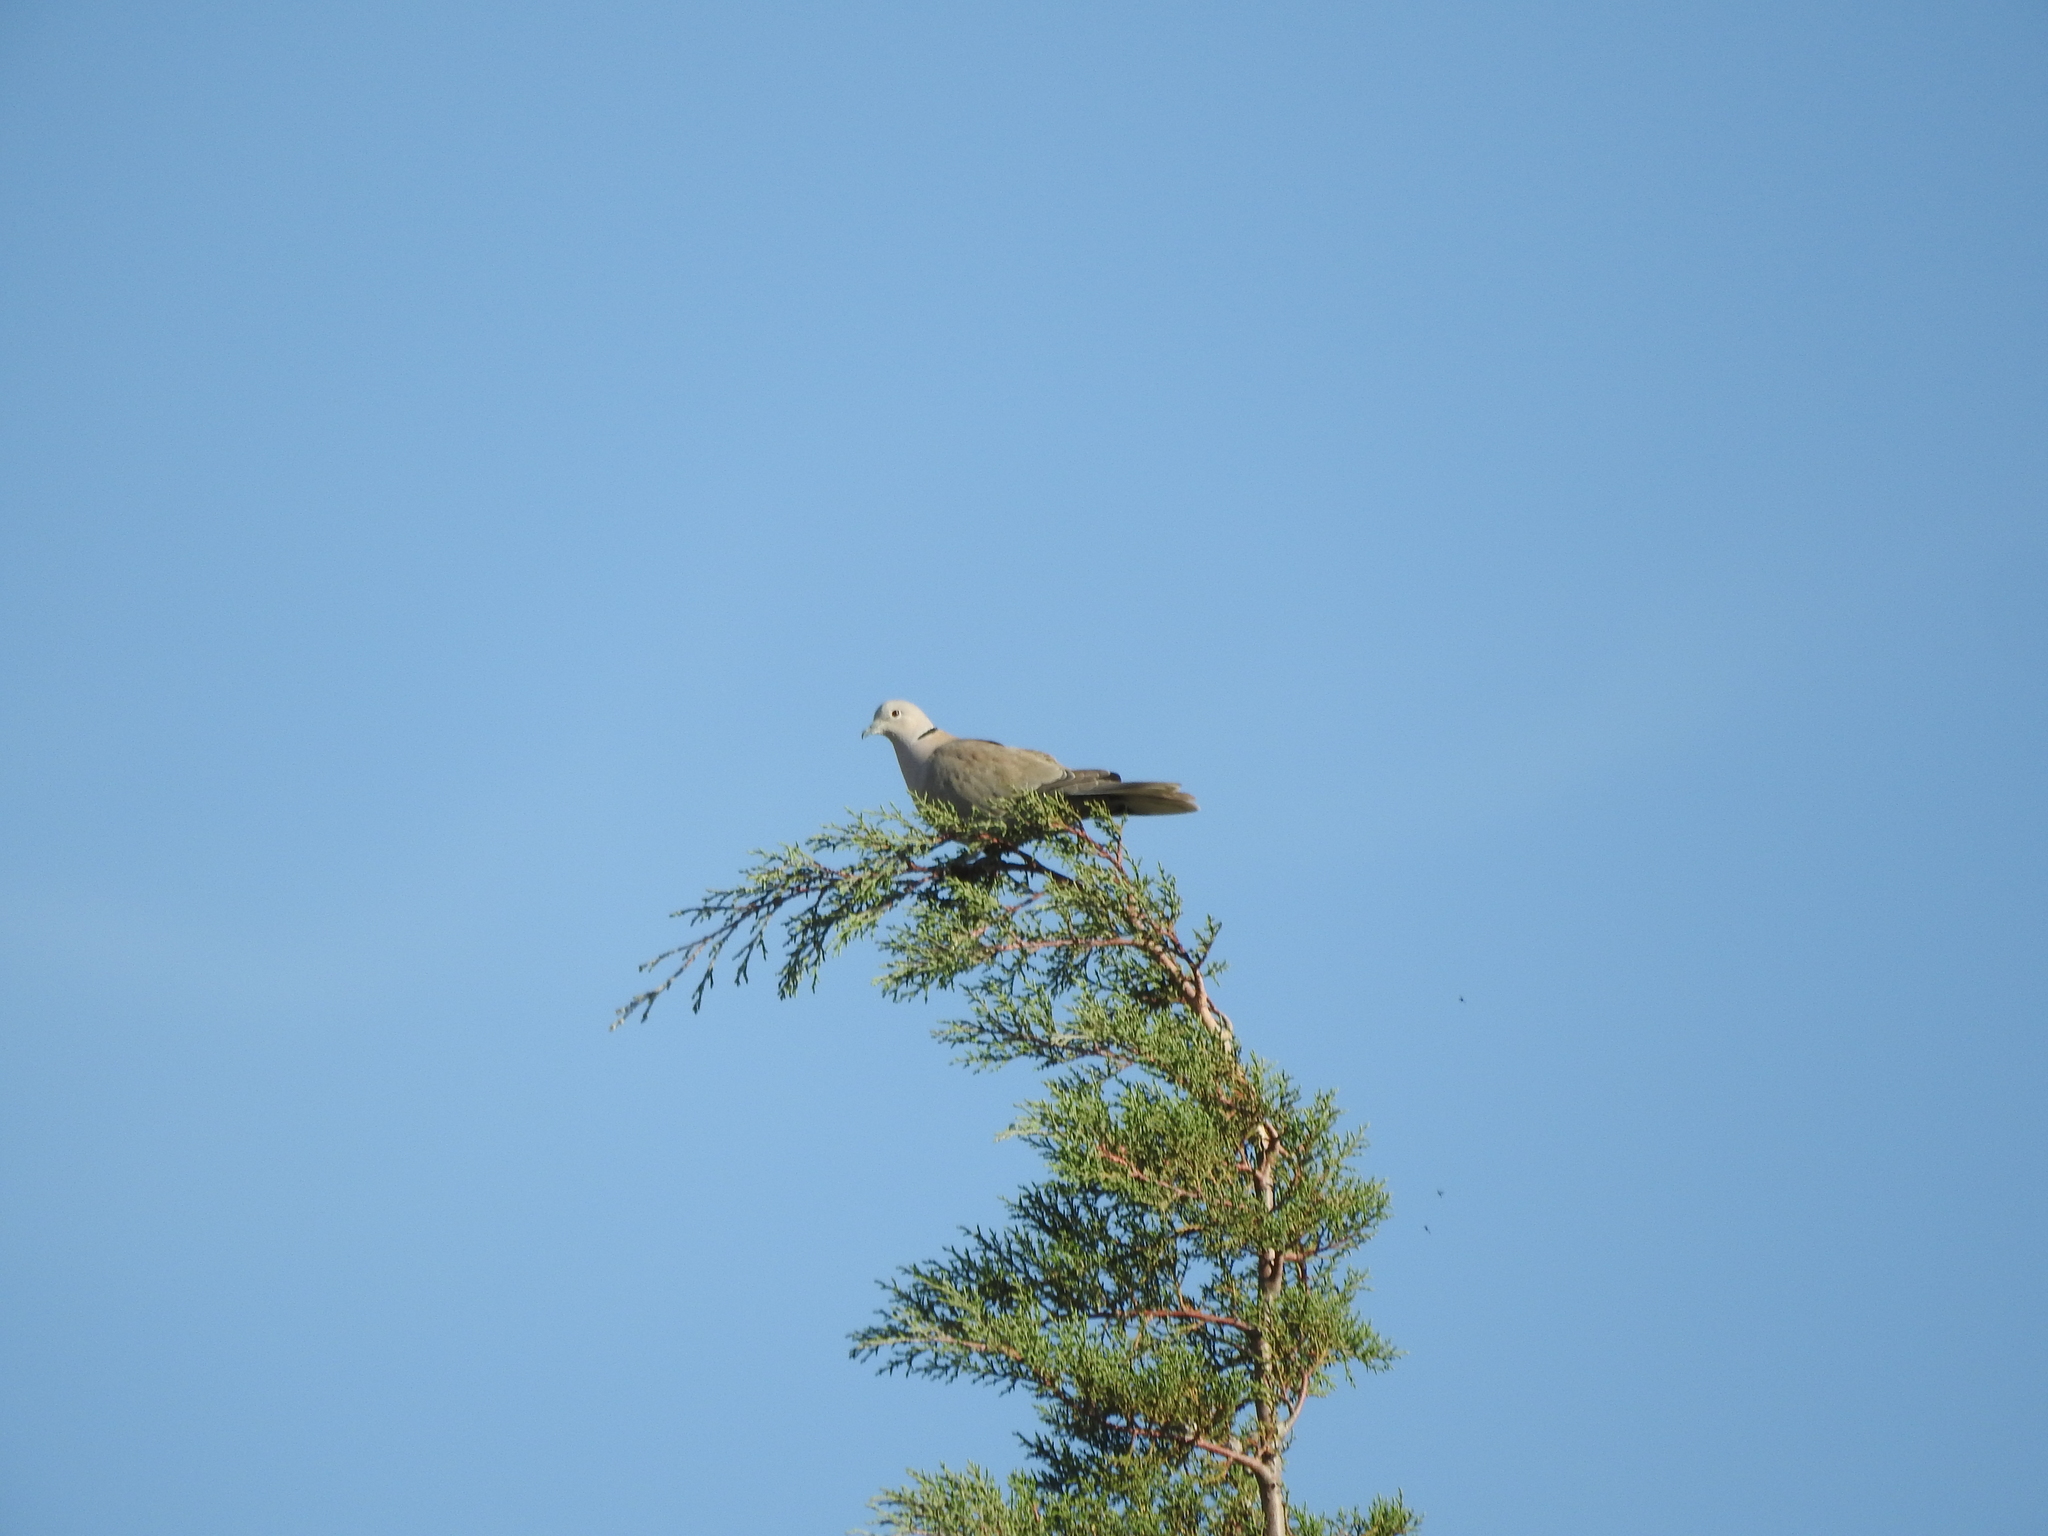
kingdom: Animalia
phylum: Chordata
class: Aves
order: Columbiformes
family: Columbidae
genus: Streptopelia
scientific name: Streptopelia decaocto
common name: Eurasian collared dove
